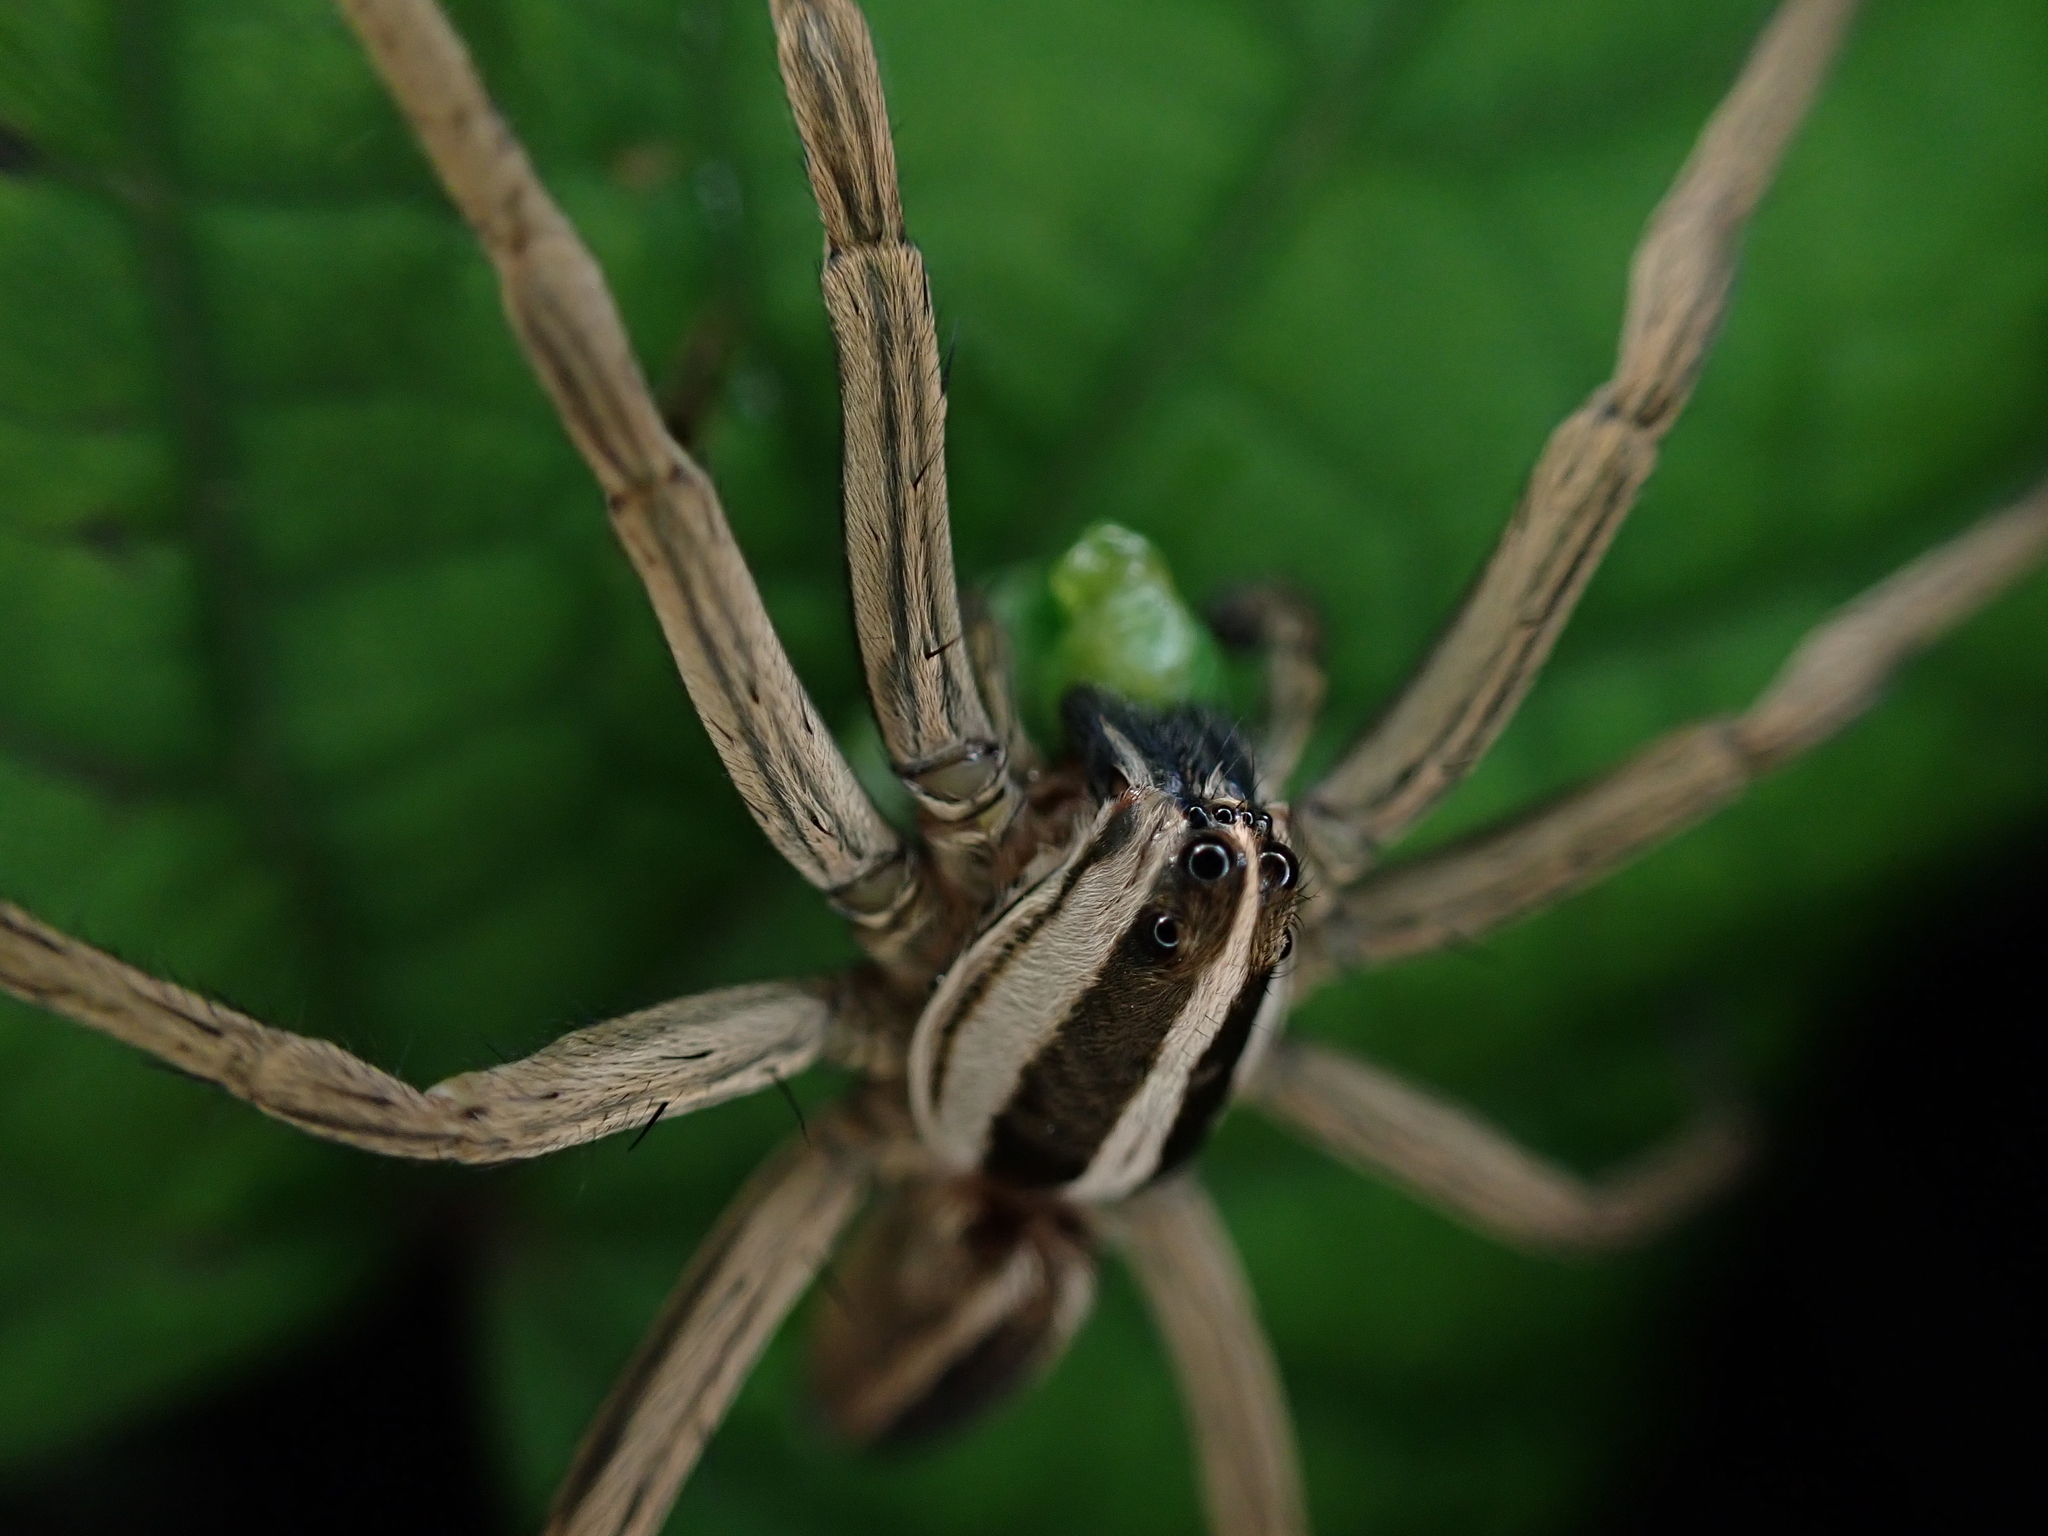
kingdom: Animalia
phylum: Arthropoda
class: Arachnida
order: Araneae
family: Lycosidae
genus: Rabidosa
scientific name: Rabidosa punctulata
